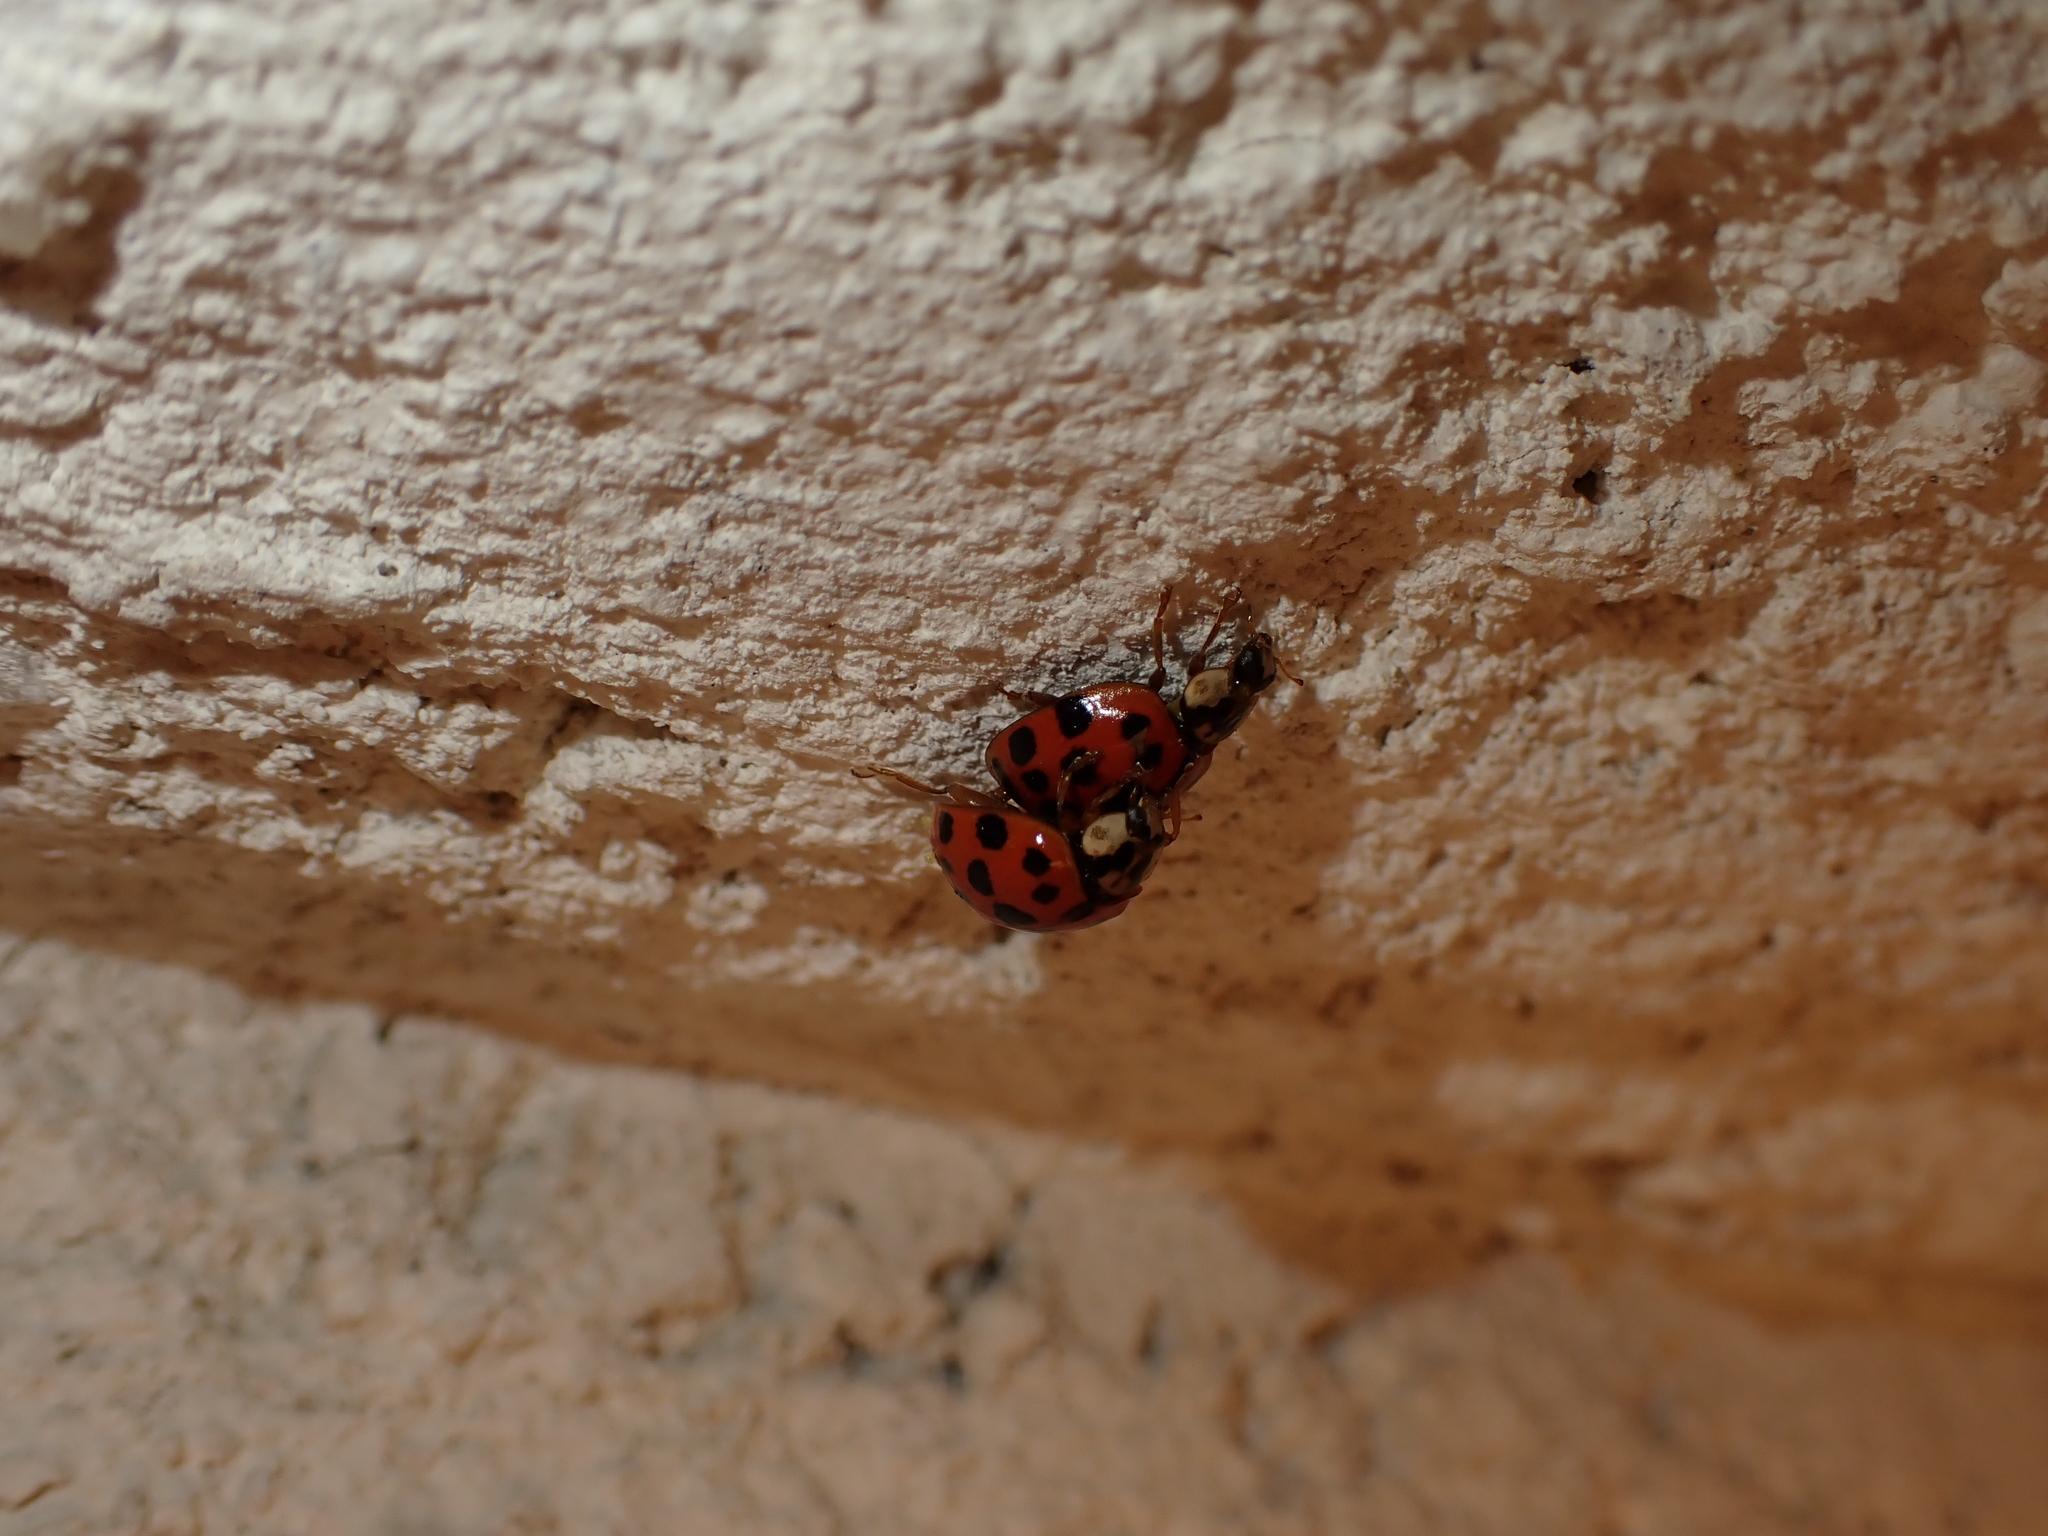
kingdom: Animalia
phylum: Arthropoda
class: Insecta
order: Coleoptera
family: Coccinellidae
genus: Harmonia
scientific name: Harmonia axyridis
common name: Harlequin ladybird
